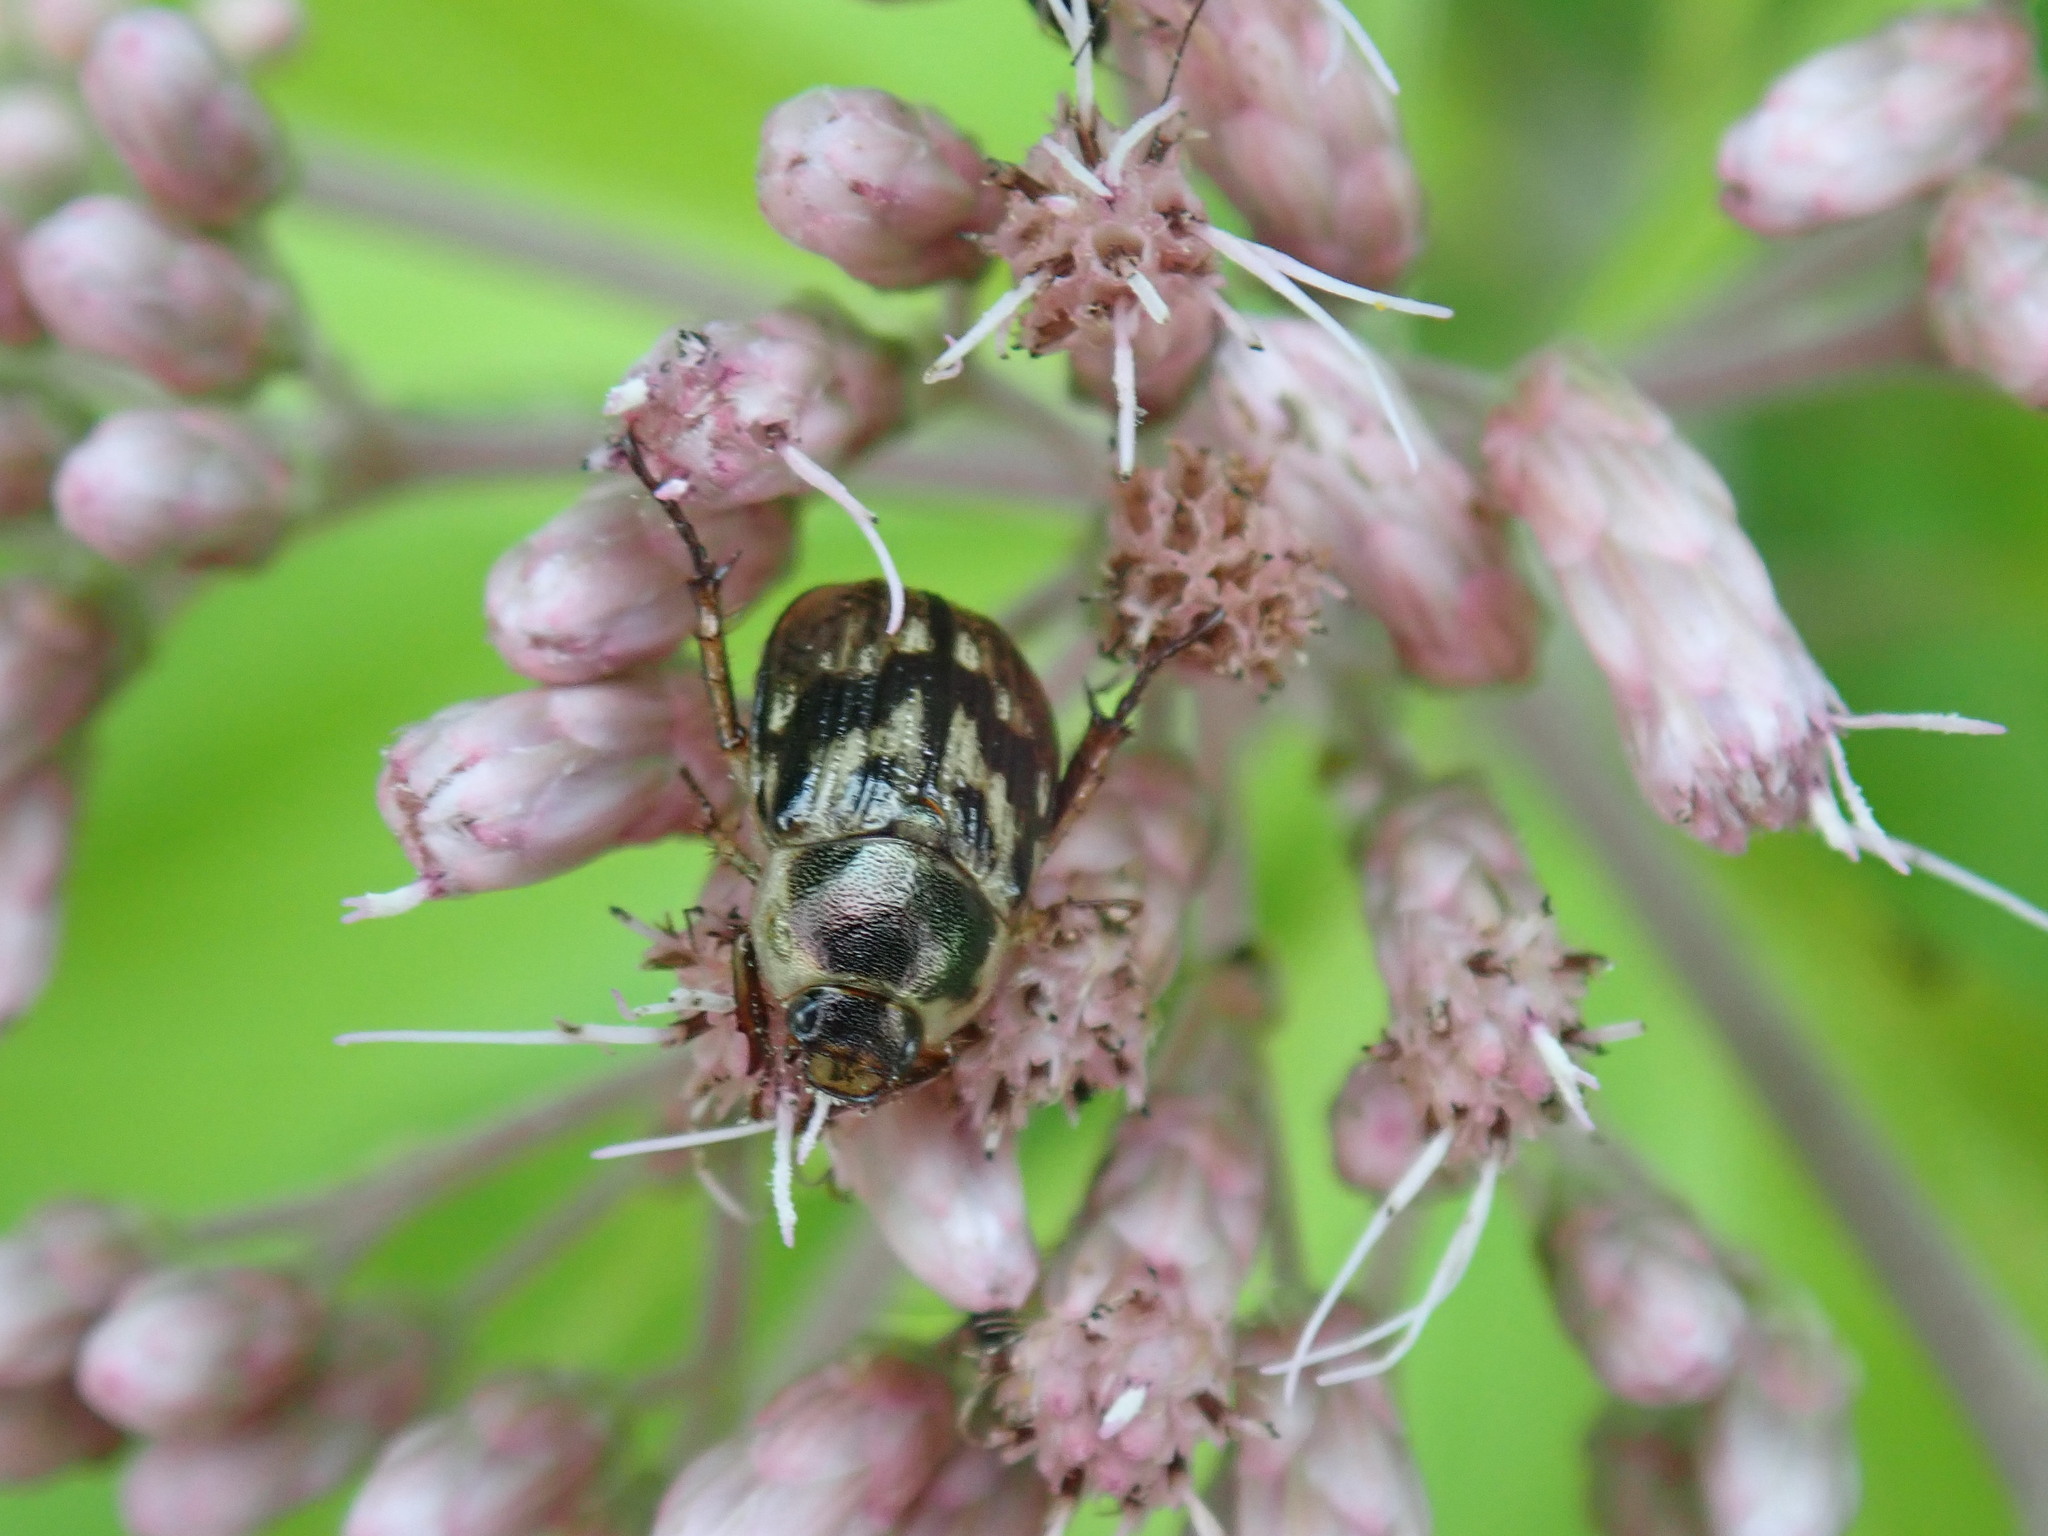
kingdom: Animalia
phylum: Arthropoda
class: Insecta
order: Coleoptera
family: Scarabaeidae
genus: Exomala
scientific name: Exomala orientalis
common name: Oriental beetle
